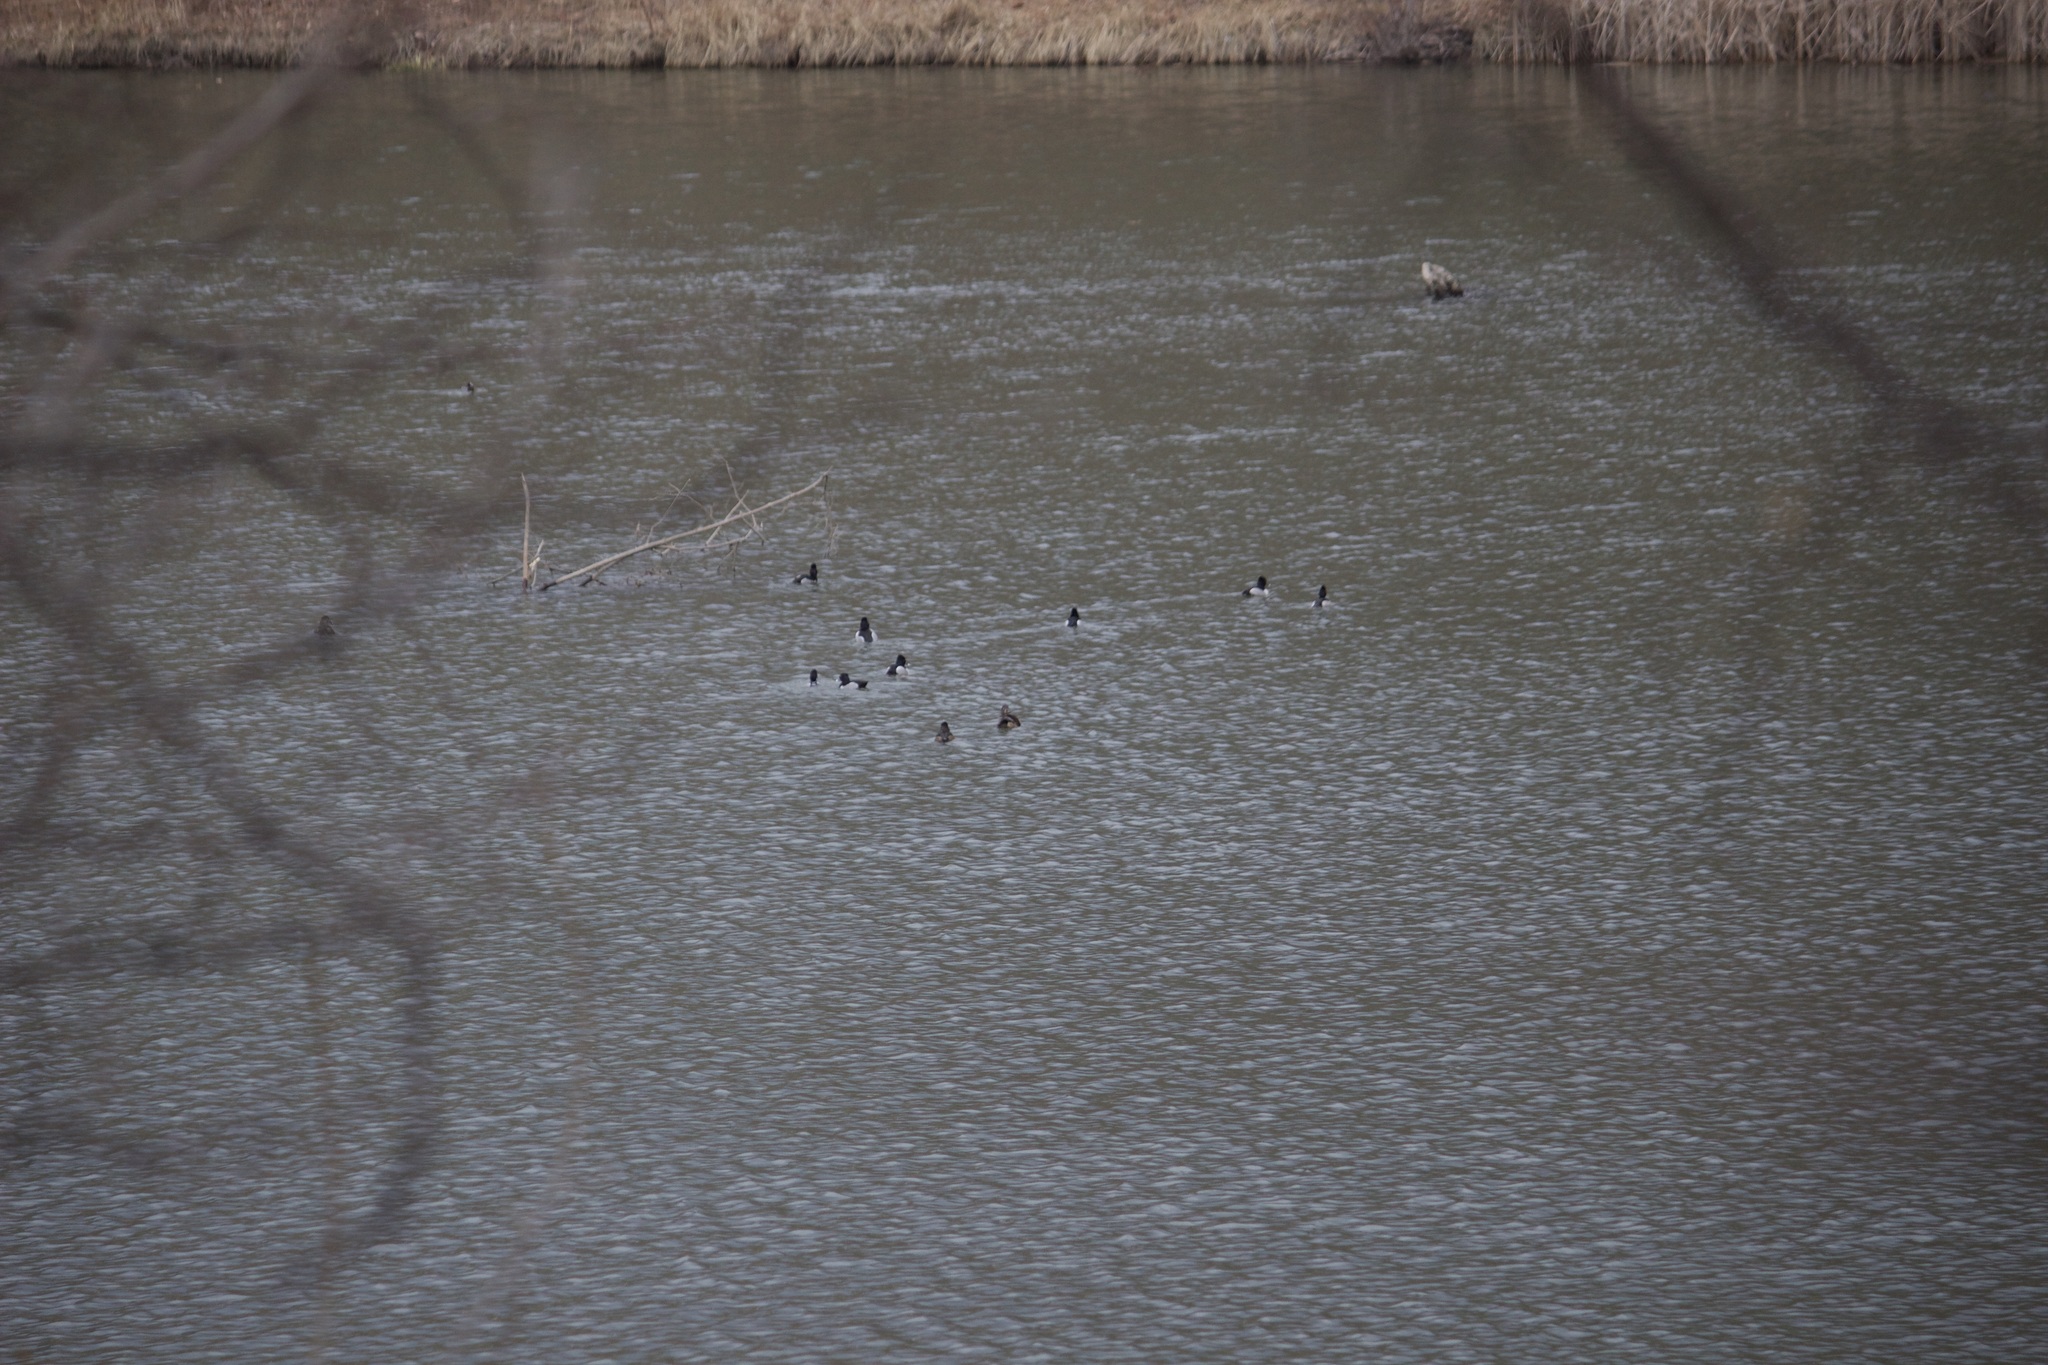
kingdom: Animalia
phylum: Chordata
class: Aves
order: Anseriformes
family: Anatidae
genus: Aythya
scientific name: Aythya collaris
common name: Ring-necked duck
